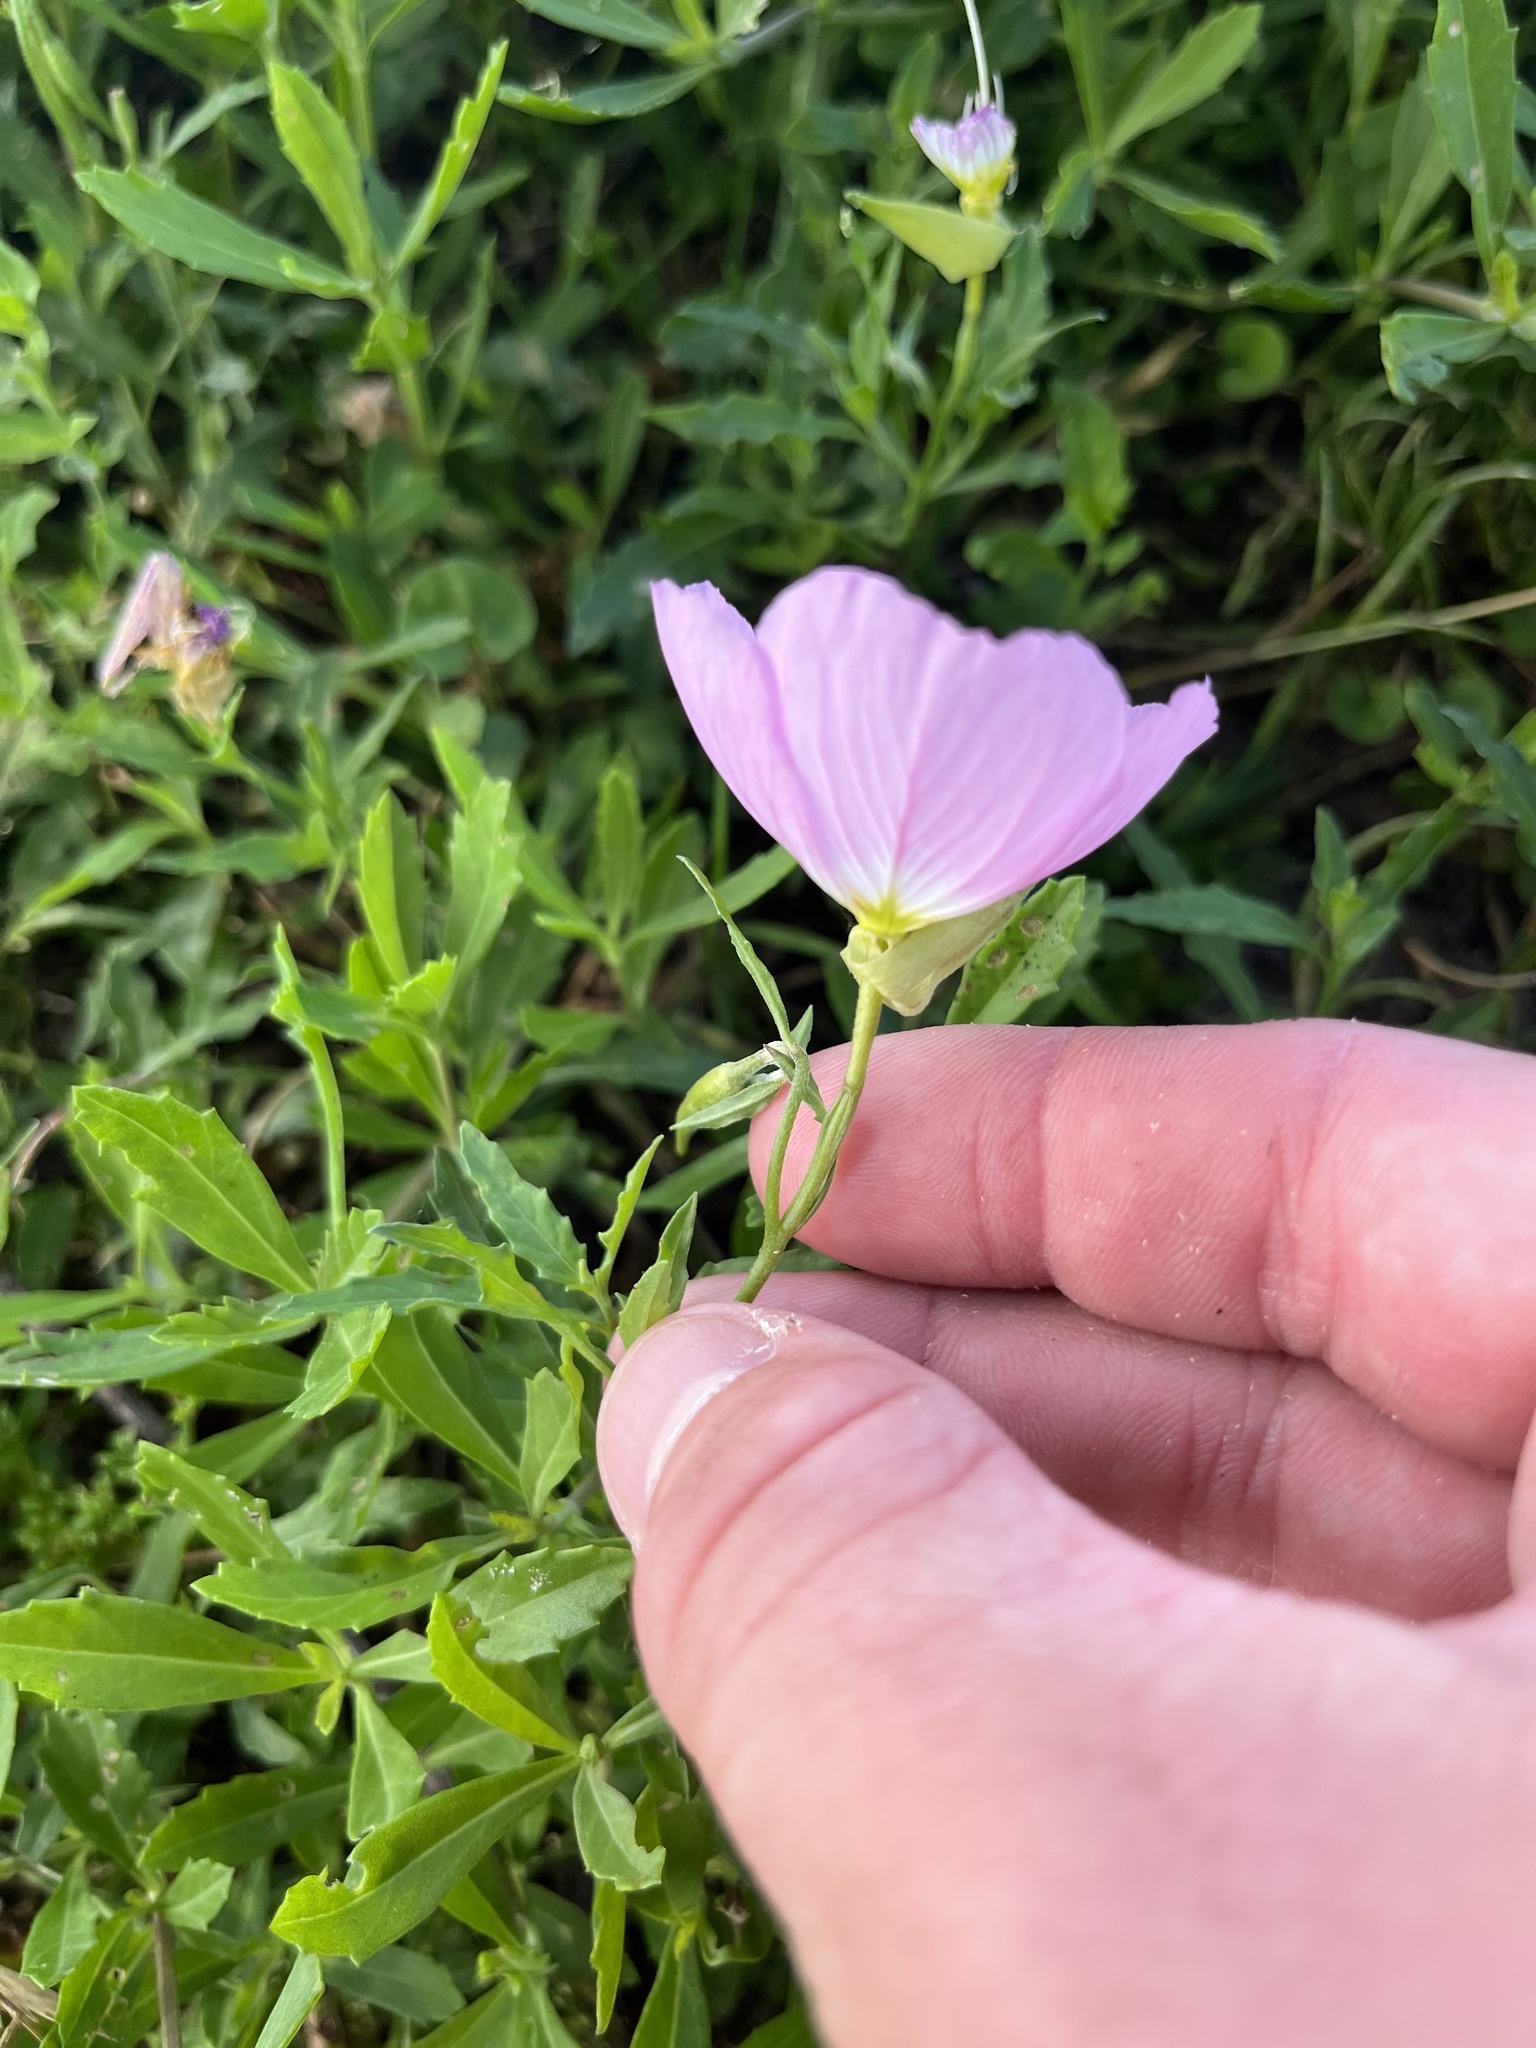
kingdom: Plantae
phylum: Tracheophyta
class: Magnoliopsida
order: Myrtales
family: Onagraceae
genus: Oenothera
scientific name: Oenothera speciosa
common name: White evening-primrose
